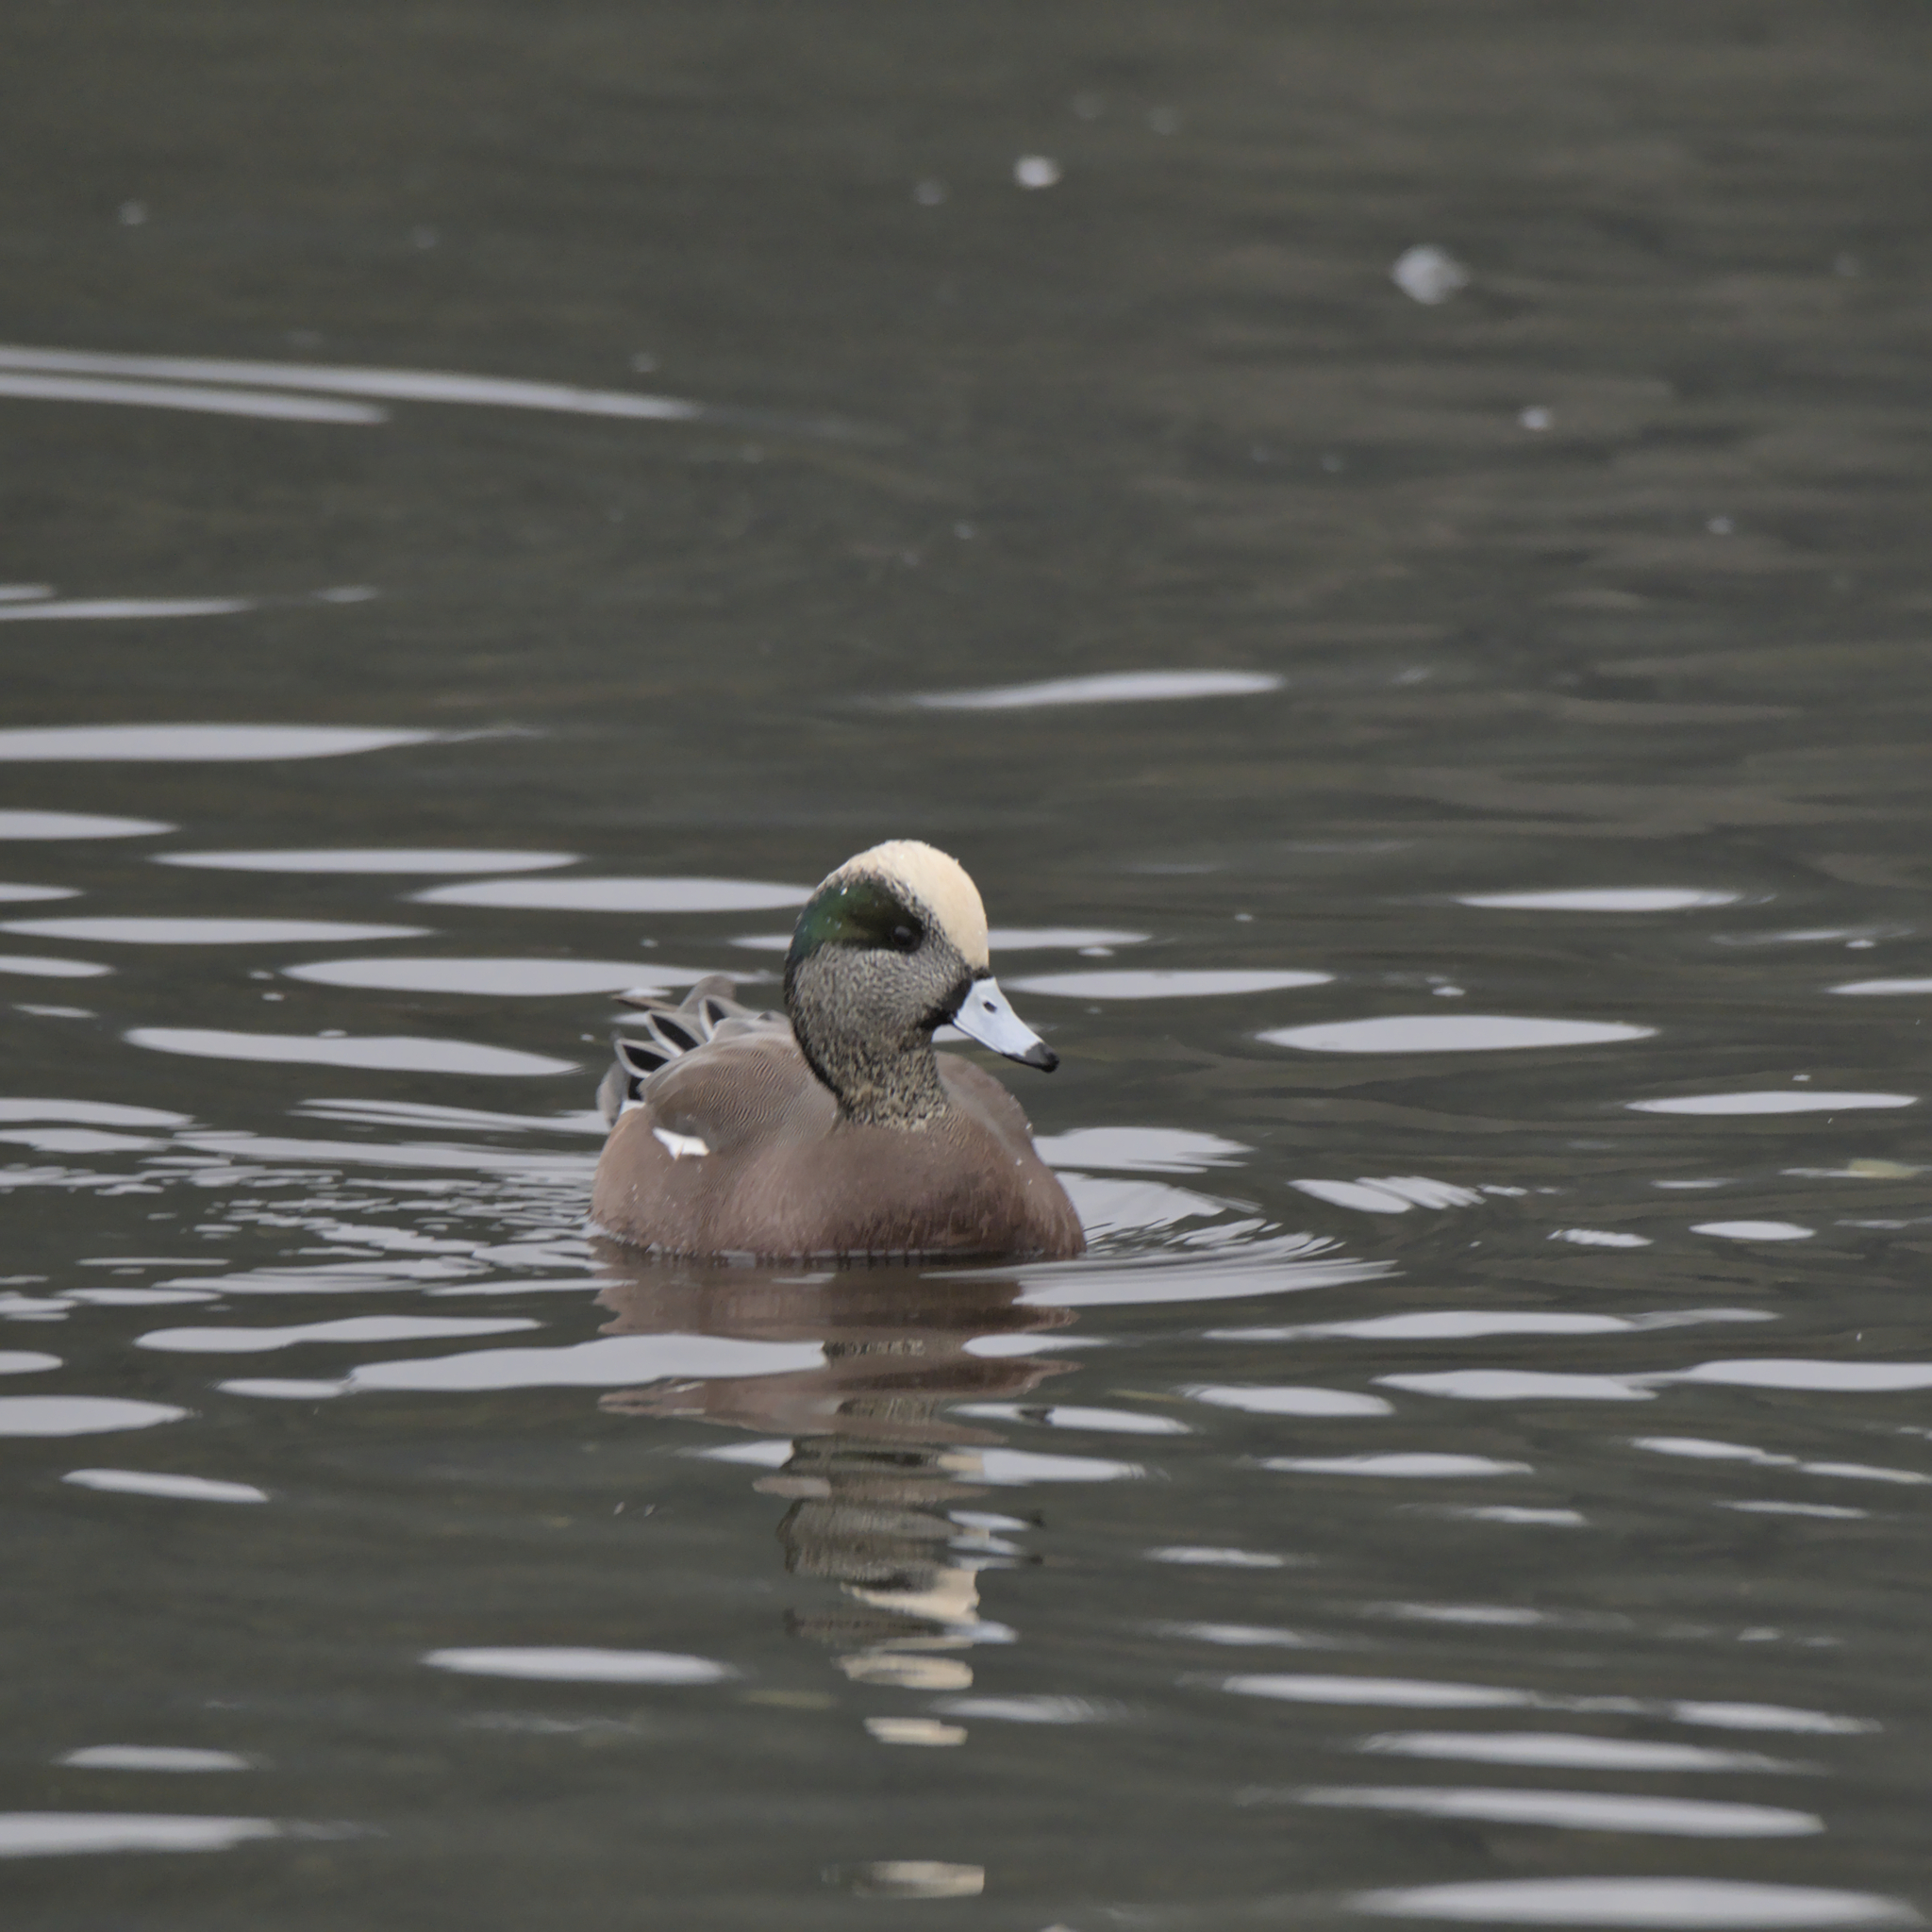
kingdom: Animalia
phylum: Chordata
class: Aves
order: Anseriformes
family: Anatidae
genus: Mareca
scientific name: Mareca americana
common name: American wigeon
